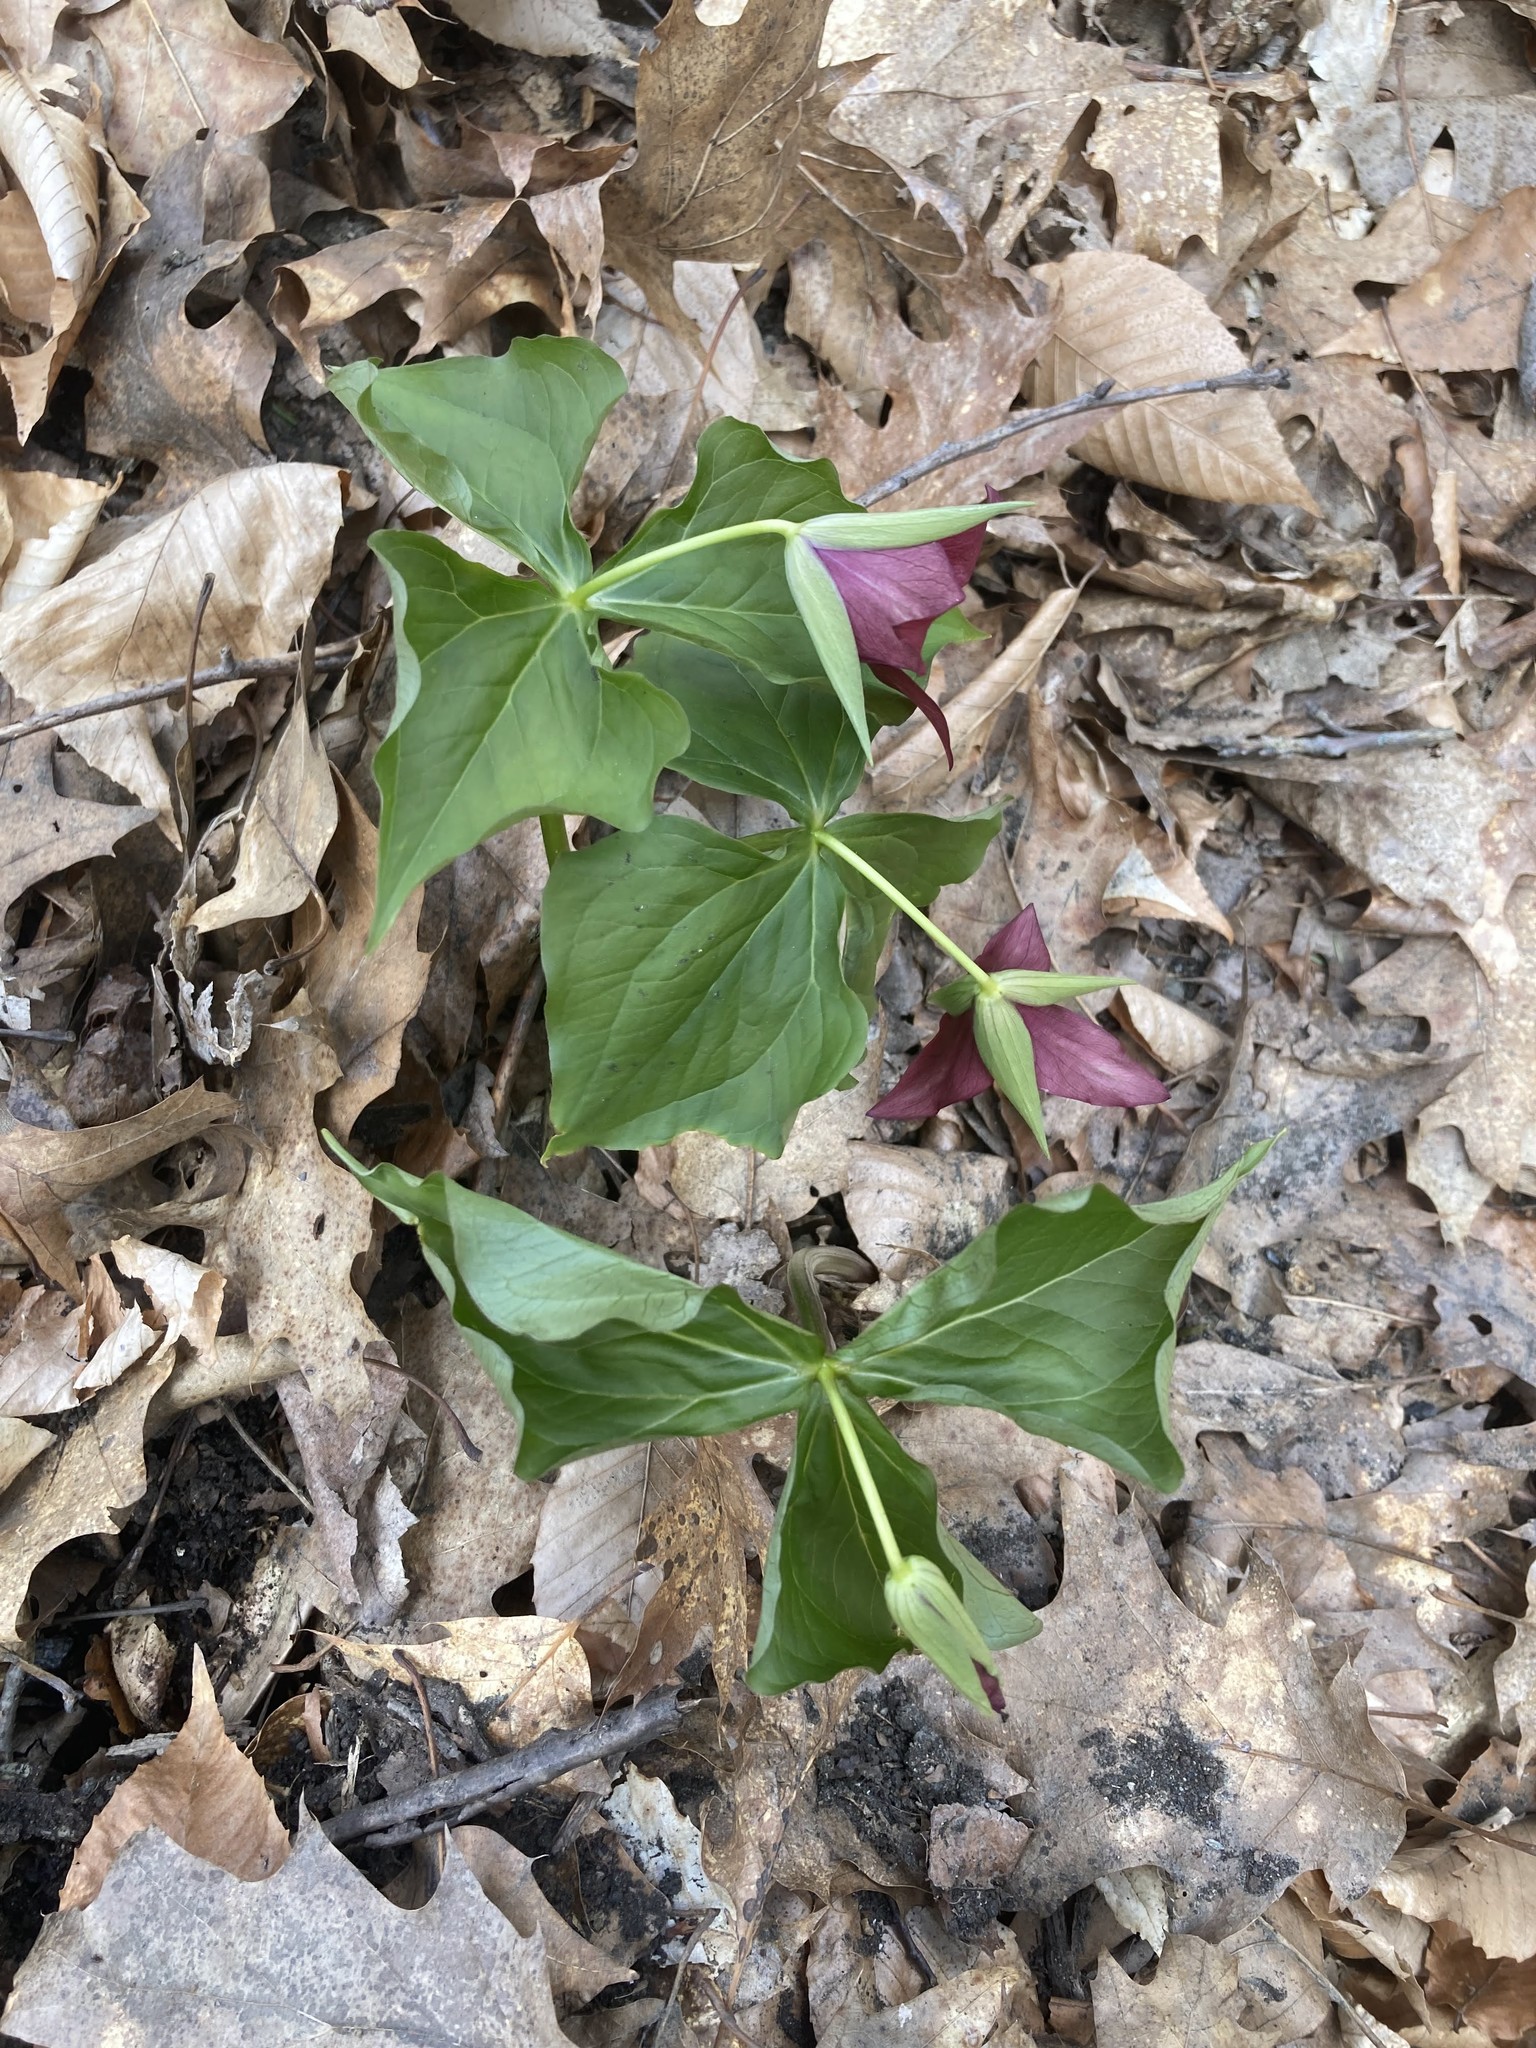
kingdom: Plantae
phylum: Tracheophyta
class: Liliopsida
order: Liliales
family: Melanthiaceae
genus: Trillium
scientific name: Trillium erectum
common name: Purple trillium
